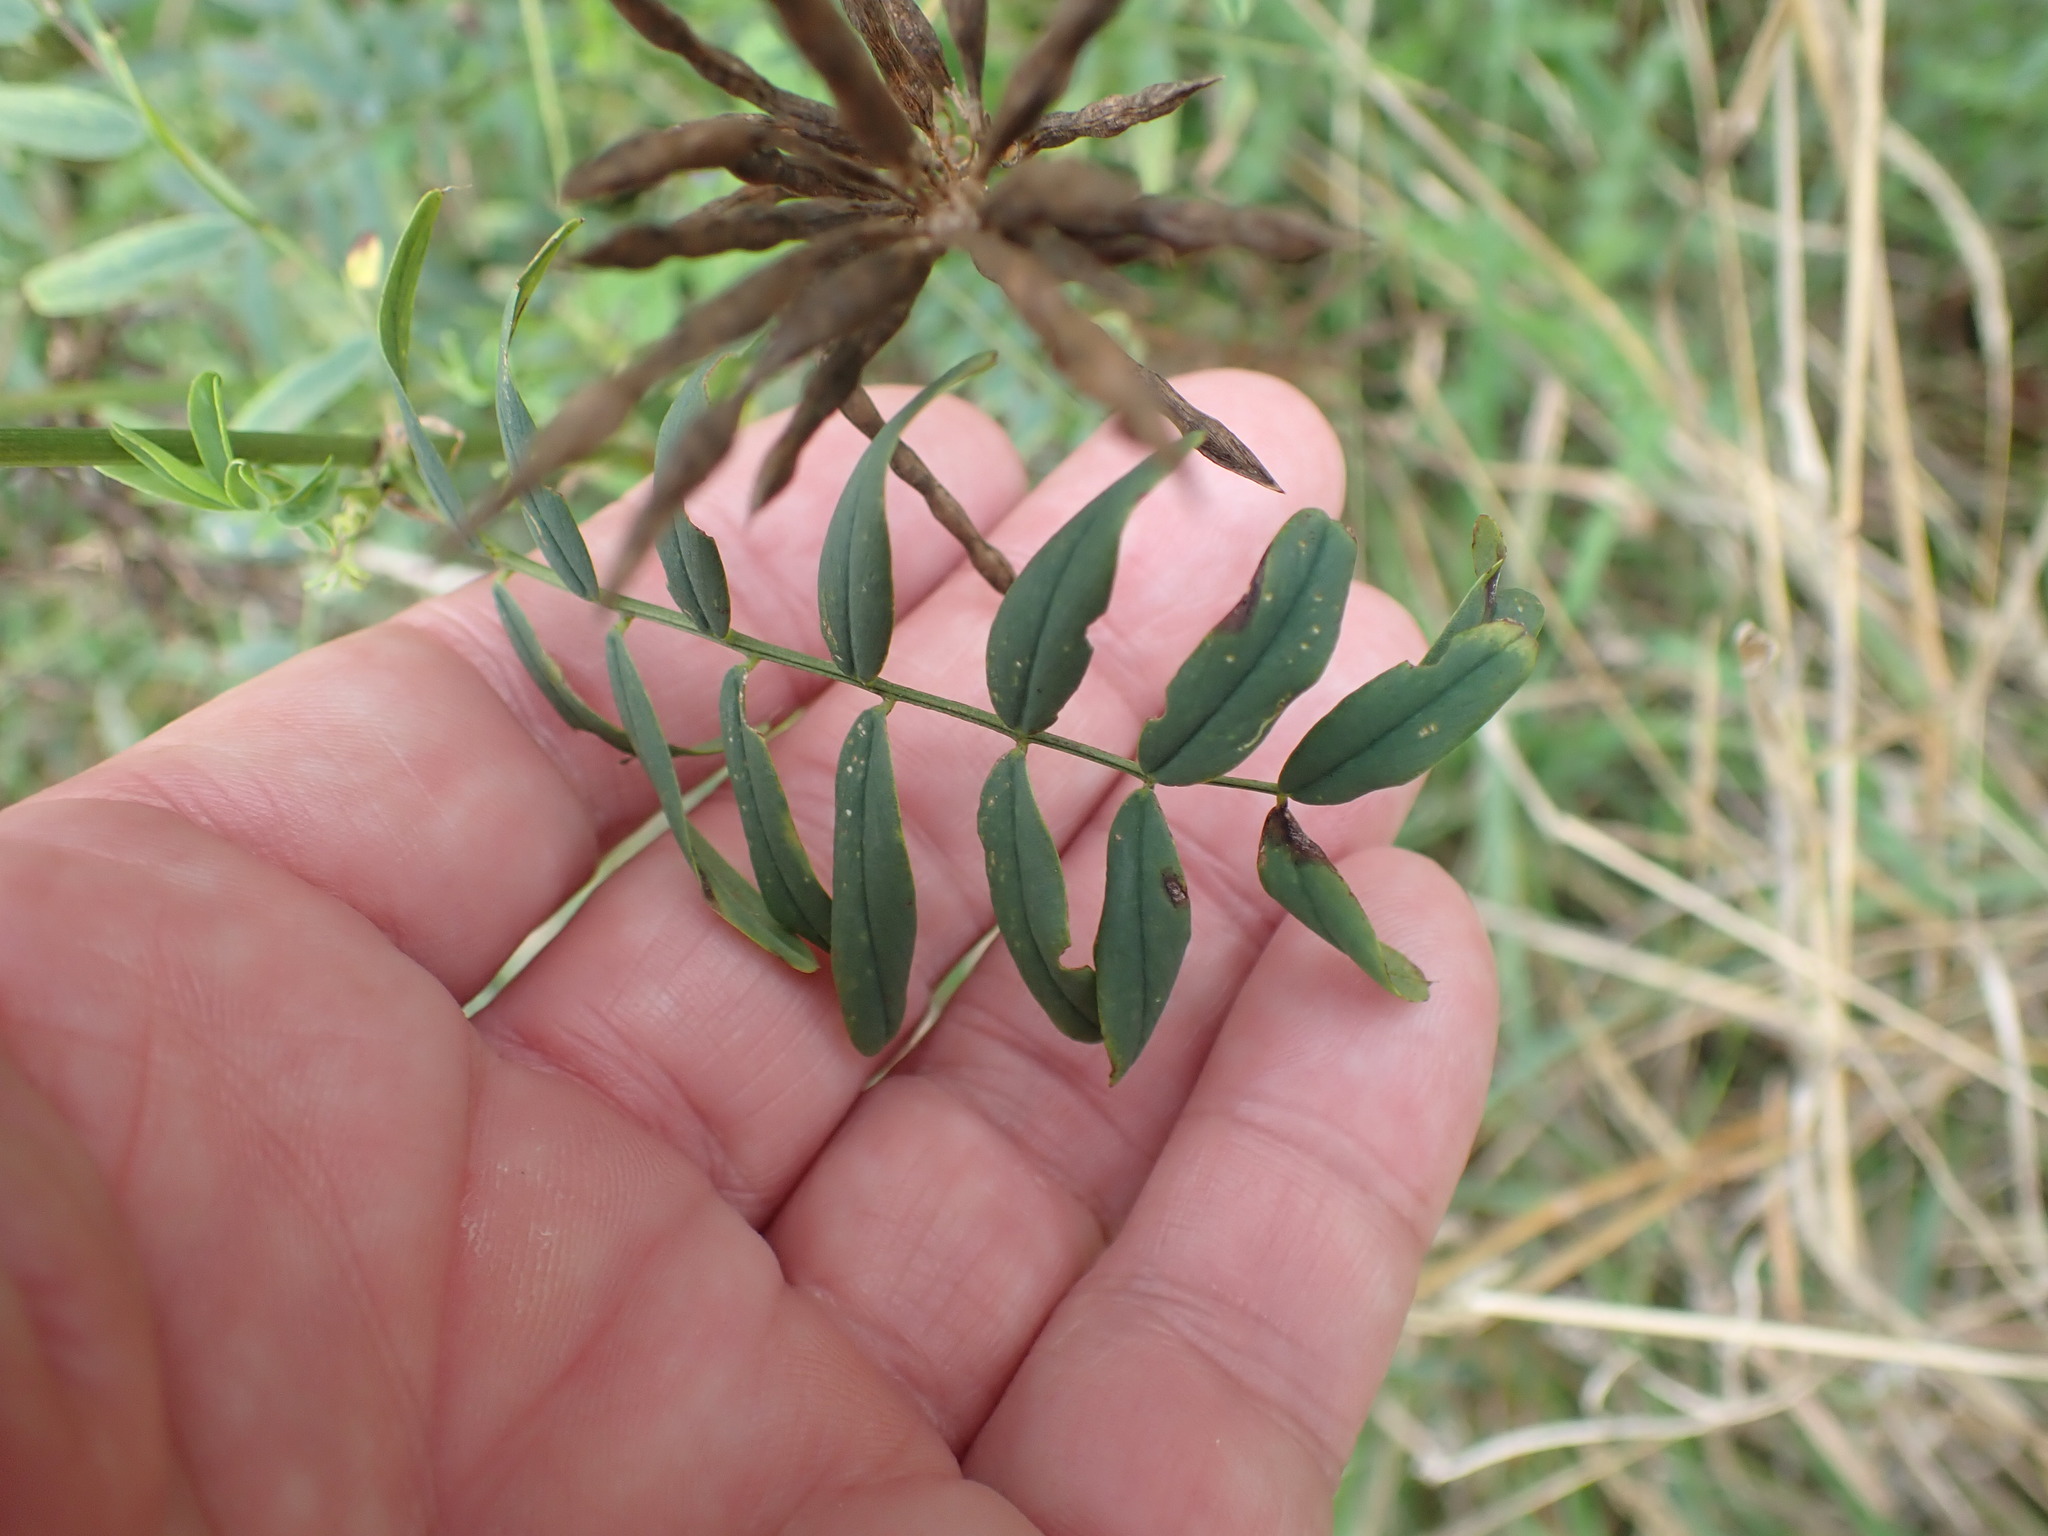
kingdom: Plantae
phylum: Tracheophyta
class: Magnoliopsida
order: Fabales
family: Fabaceae
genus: Galega
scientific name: Galega officinalis
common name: Goat's-rue
